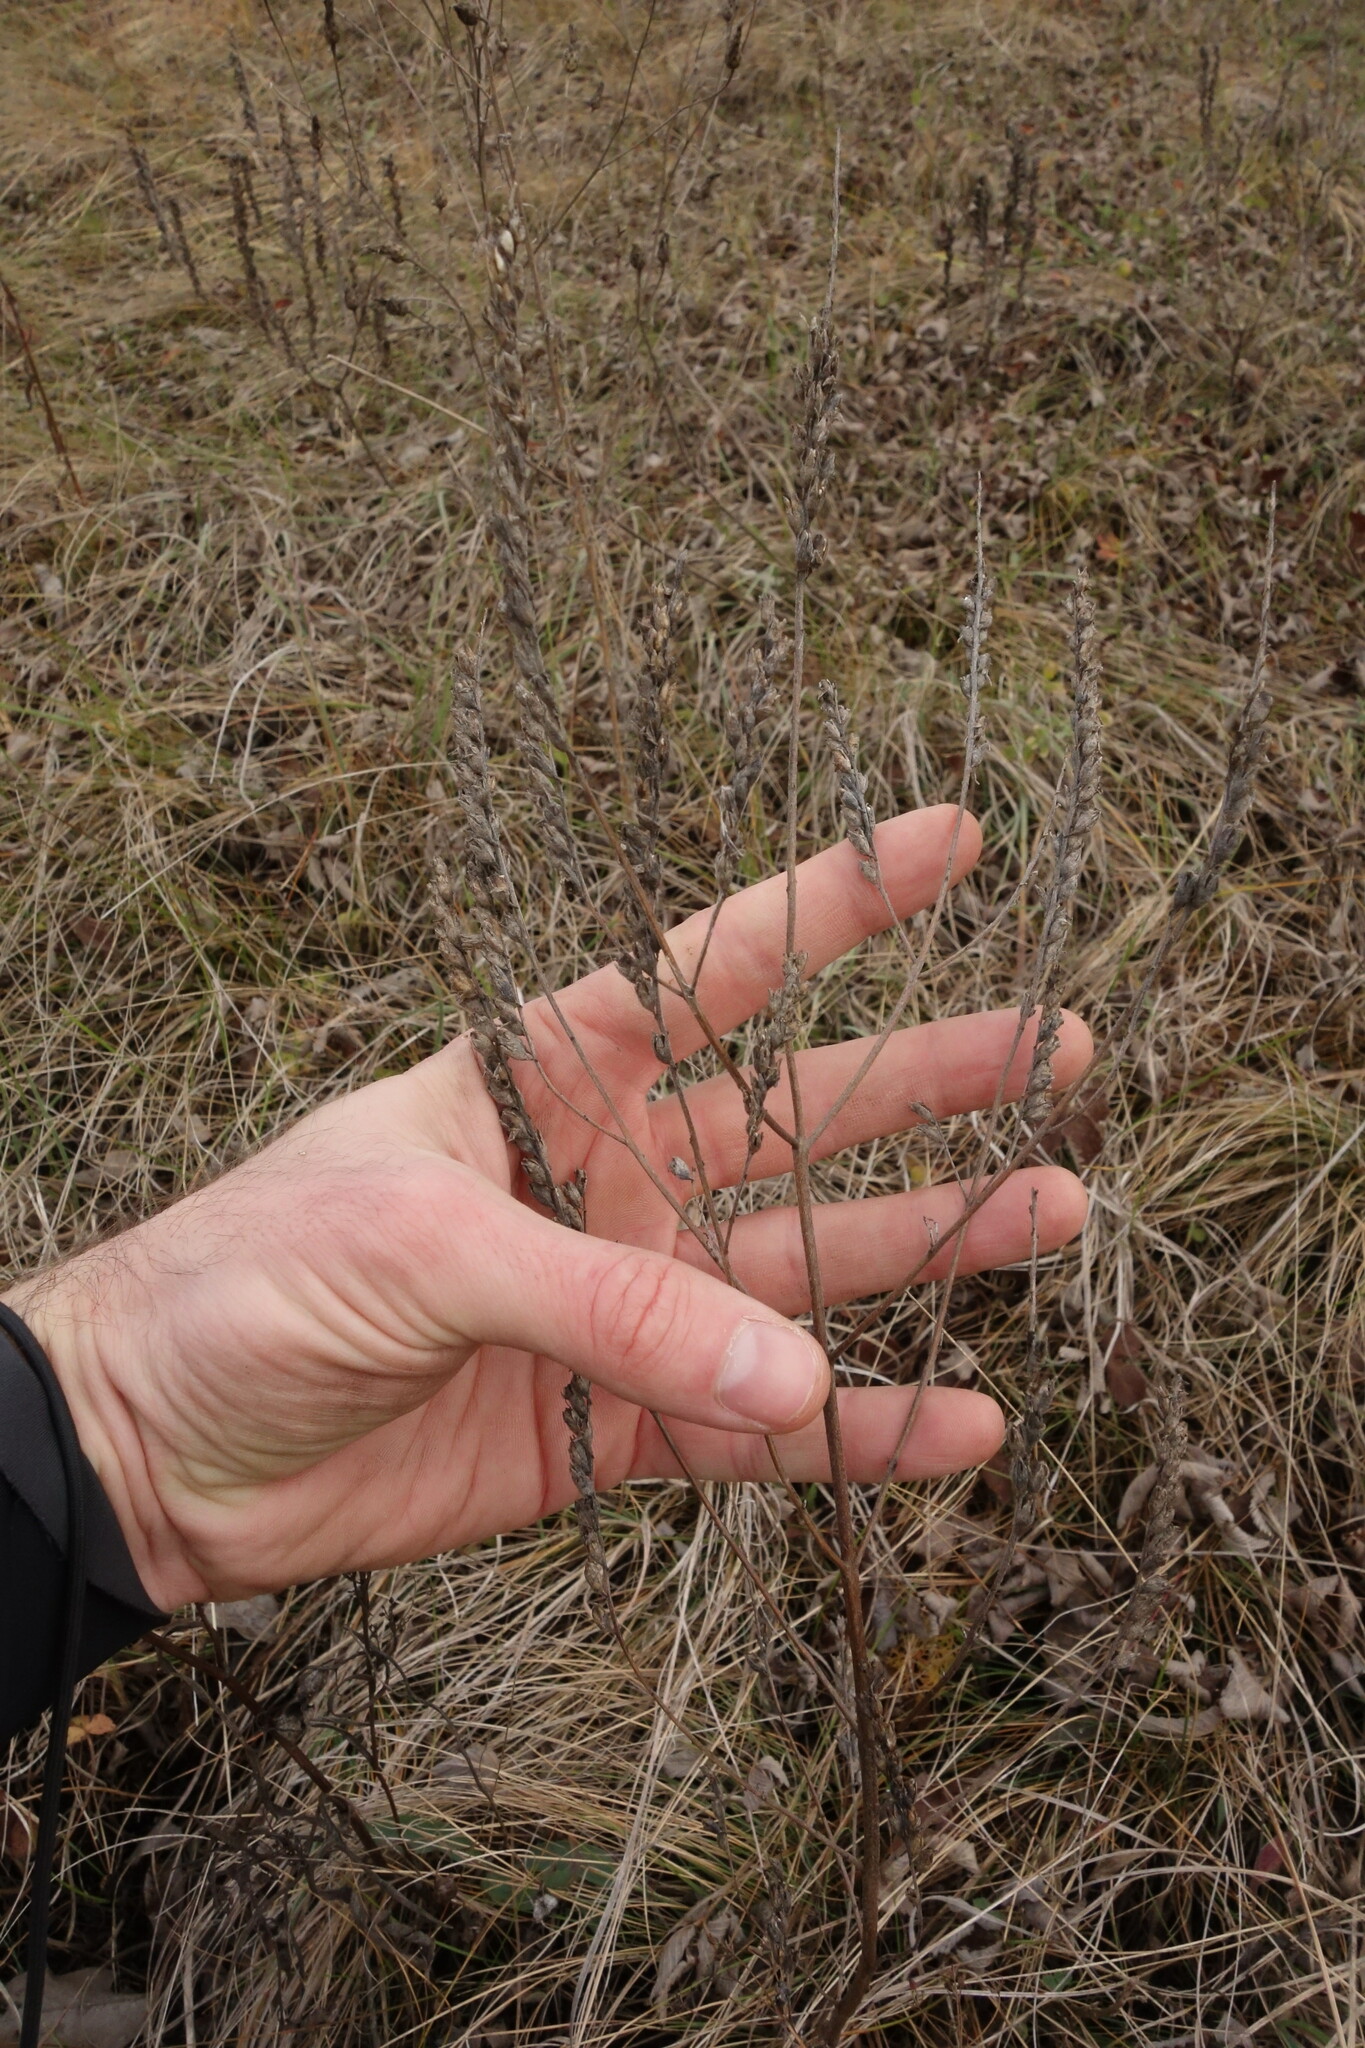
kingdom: Plantae
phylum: Tracheophyta
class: Magnoliopsida
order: Lamiales
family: Orobanchaceae
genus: Odontites
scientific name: Odontites vulgaris
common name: Broomrape
